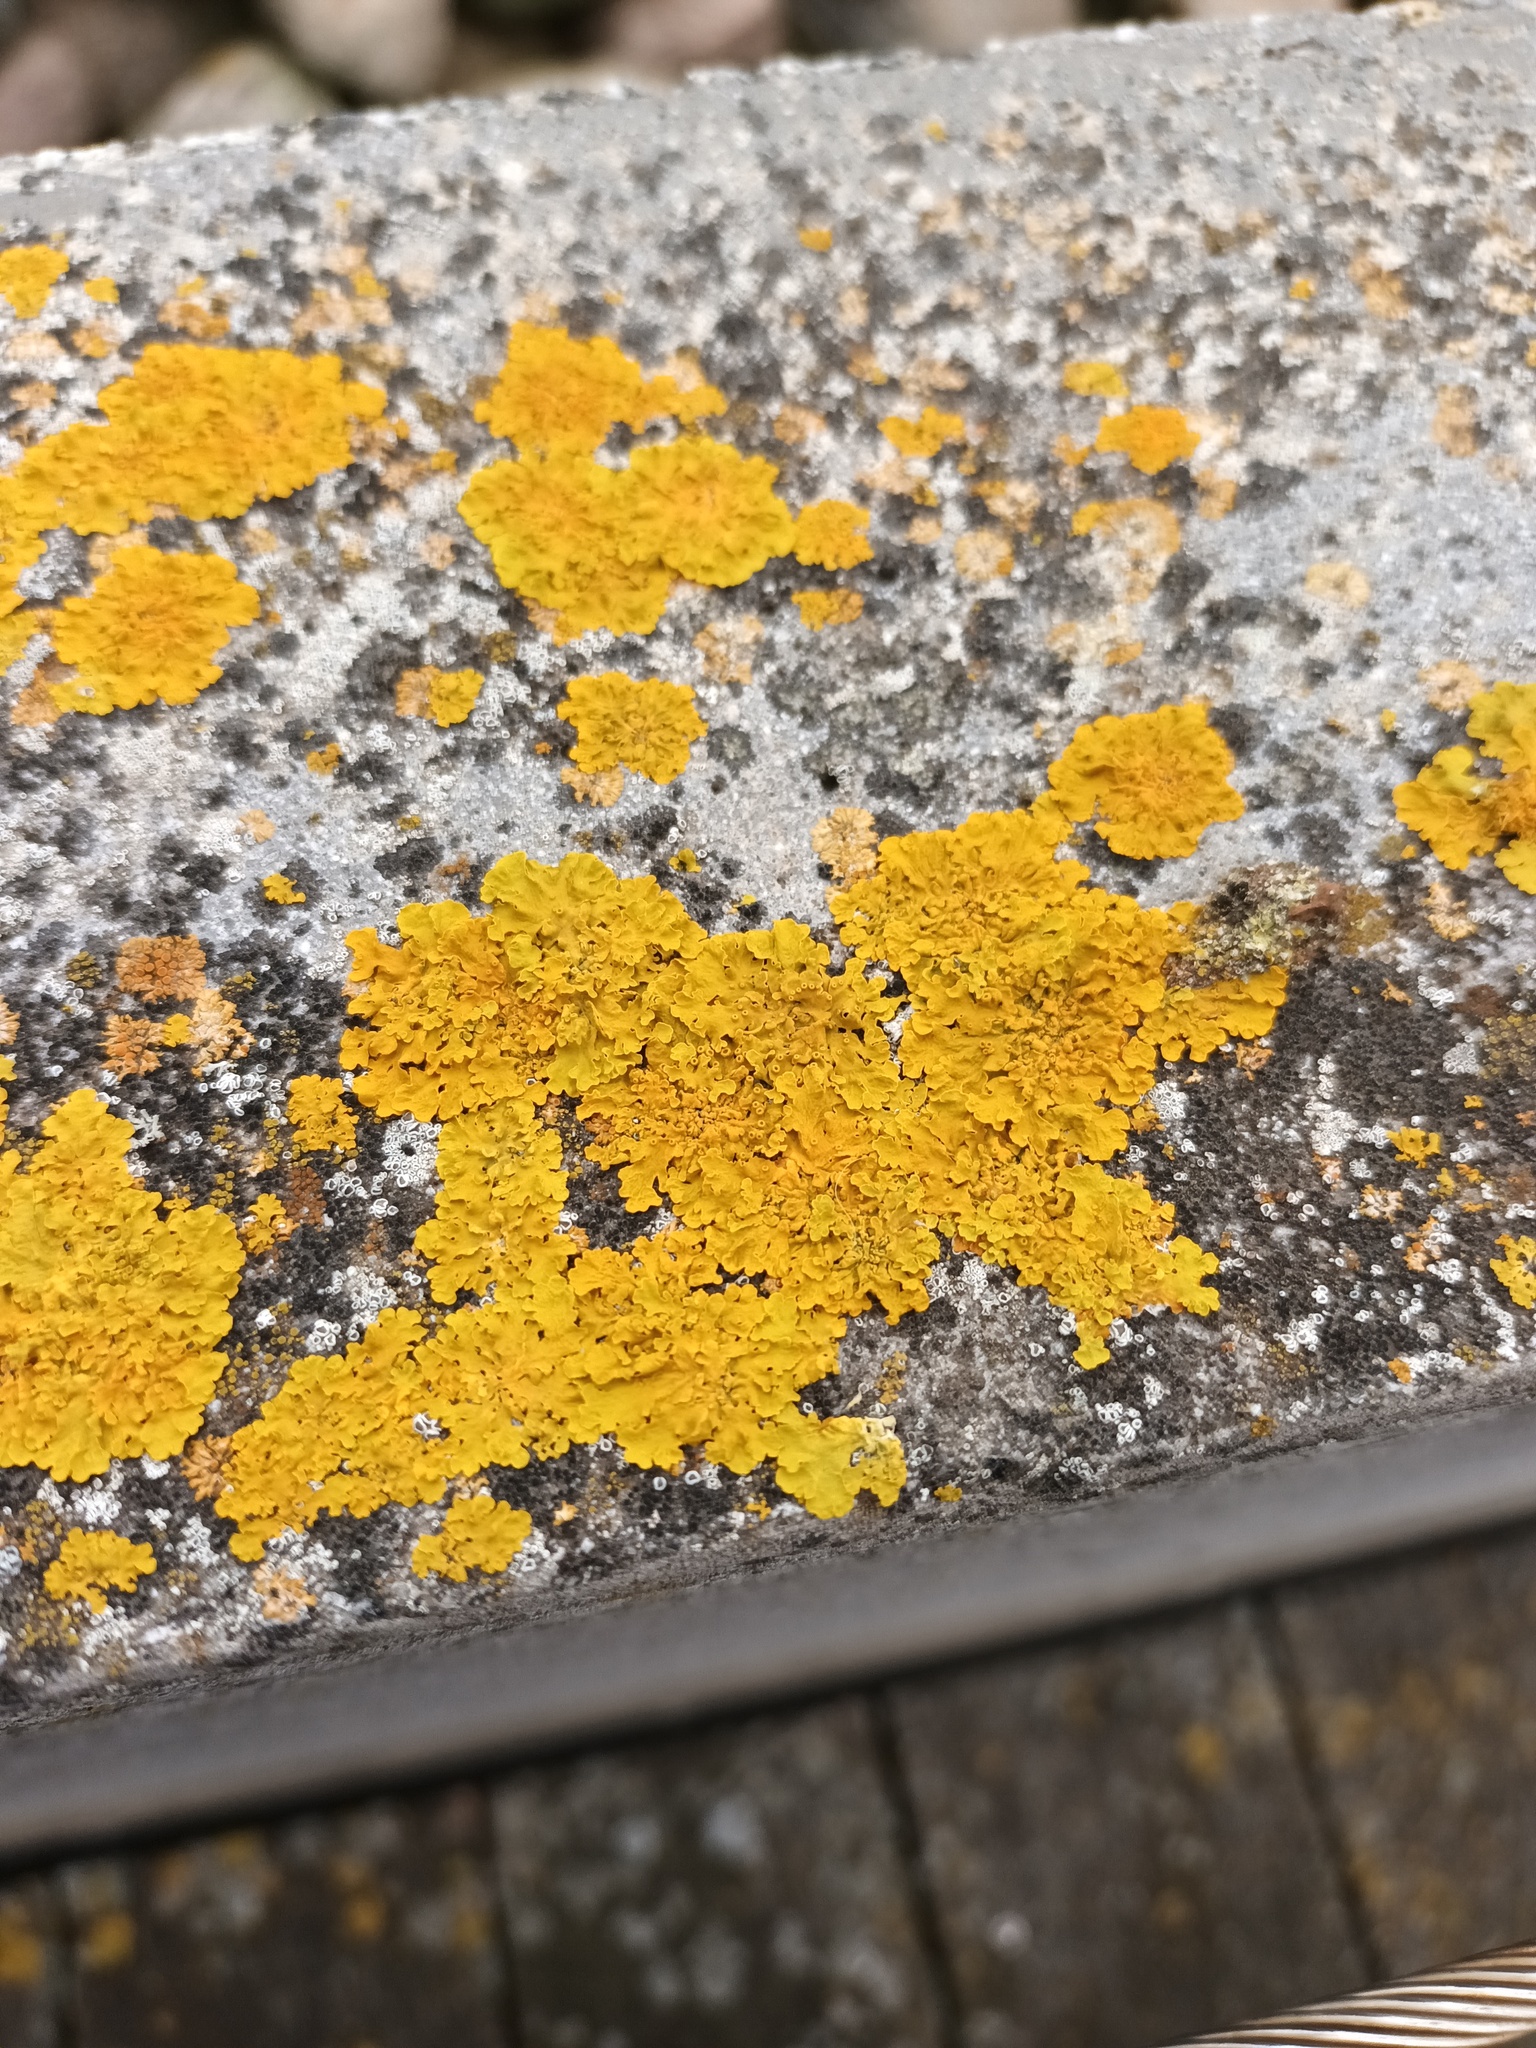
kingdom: Fungi
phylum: Ascomycota
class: Lecanoromycetes
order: Teloschistales
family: Teloschistaceae
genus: Xanthoria
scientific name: Xanthoria parietina
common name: Common orange lichen
